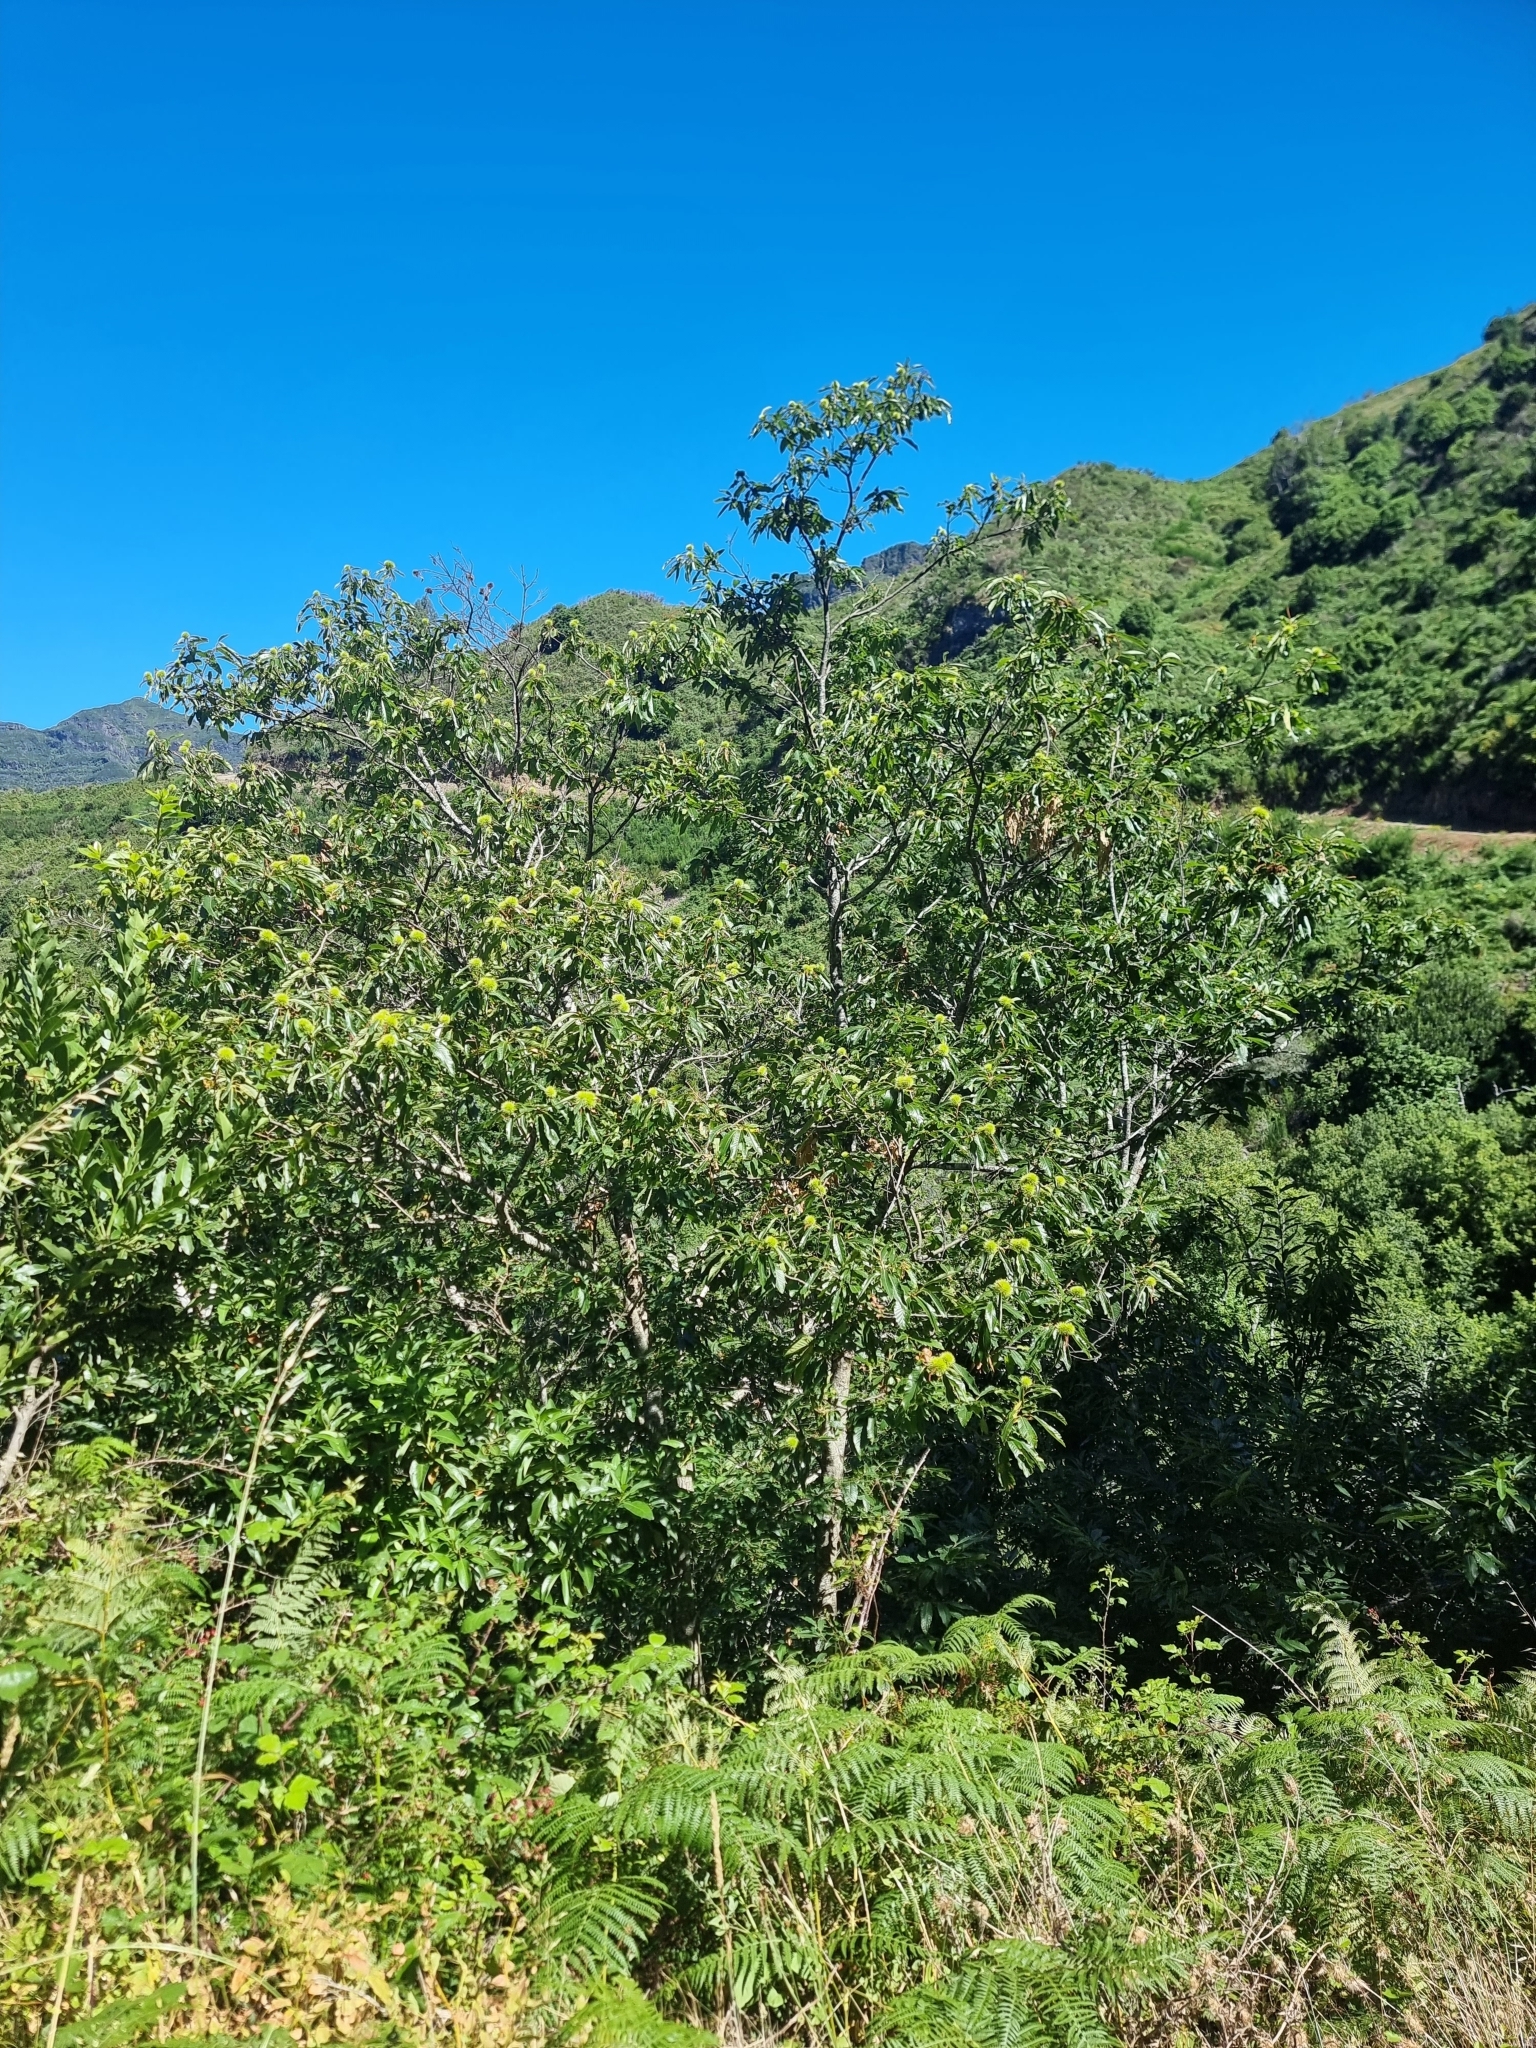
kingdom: Plantae
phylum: Tracheophyta
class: Magnoliopsida
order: Fagales
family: Fagaceae
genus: Castanea
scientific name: Castanea sativa
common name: Sweet chestnut
